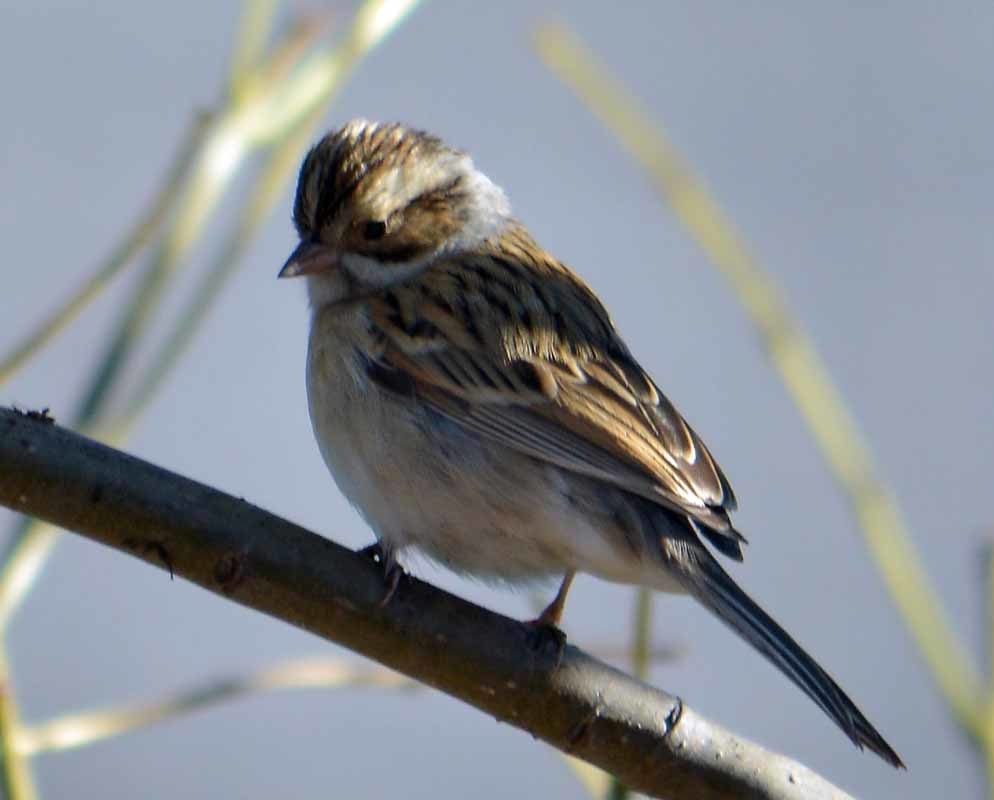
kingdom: Animalia
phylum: Chordata
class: Aves
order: Passeriformes
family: Passerellidae
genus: Spizella
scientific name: Spizella pallida
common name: Clay-colored sparrow
